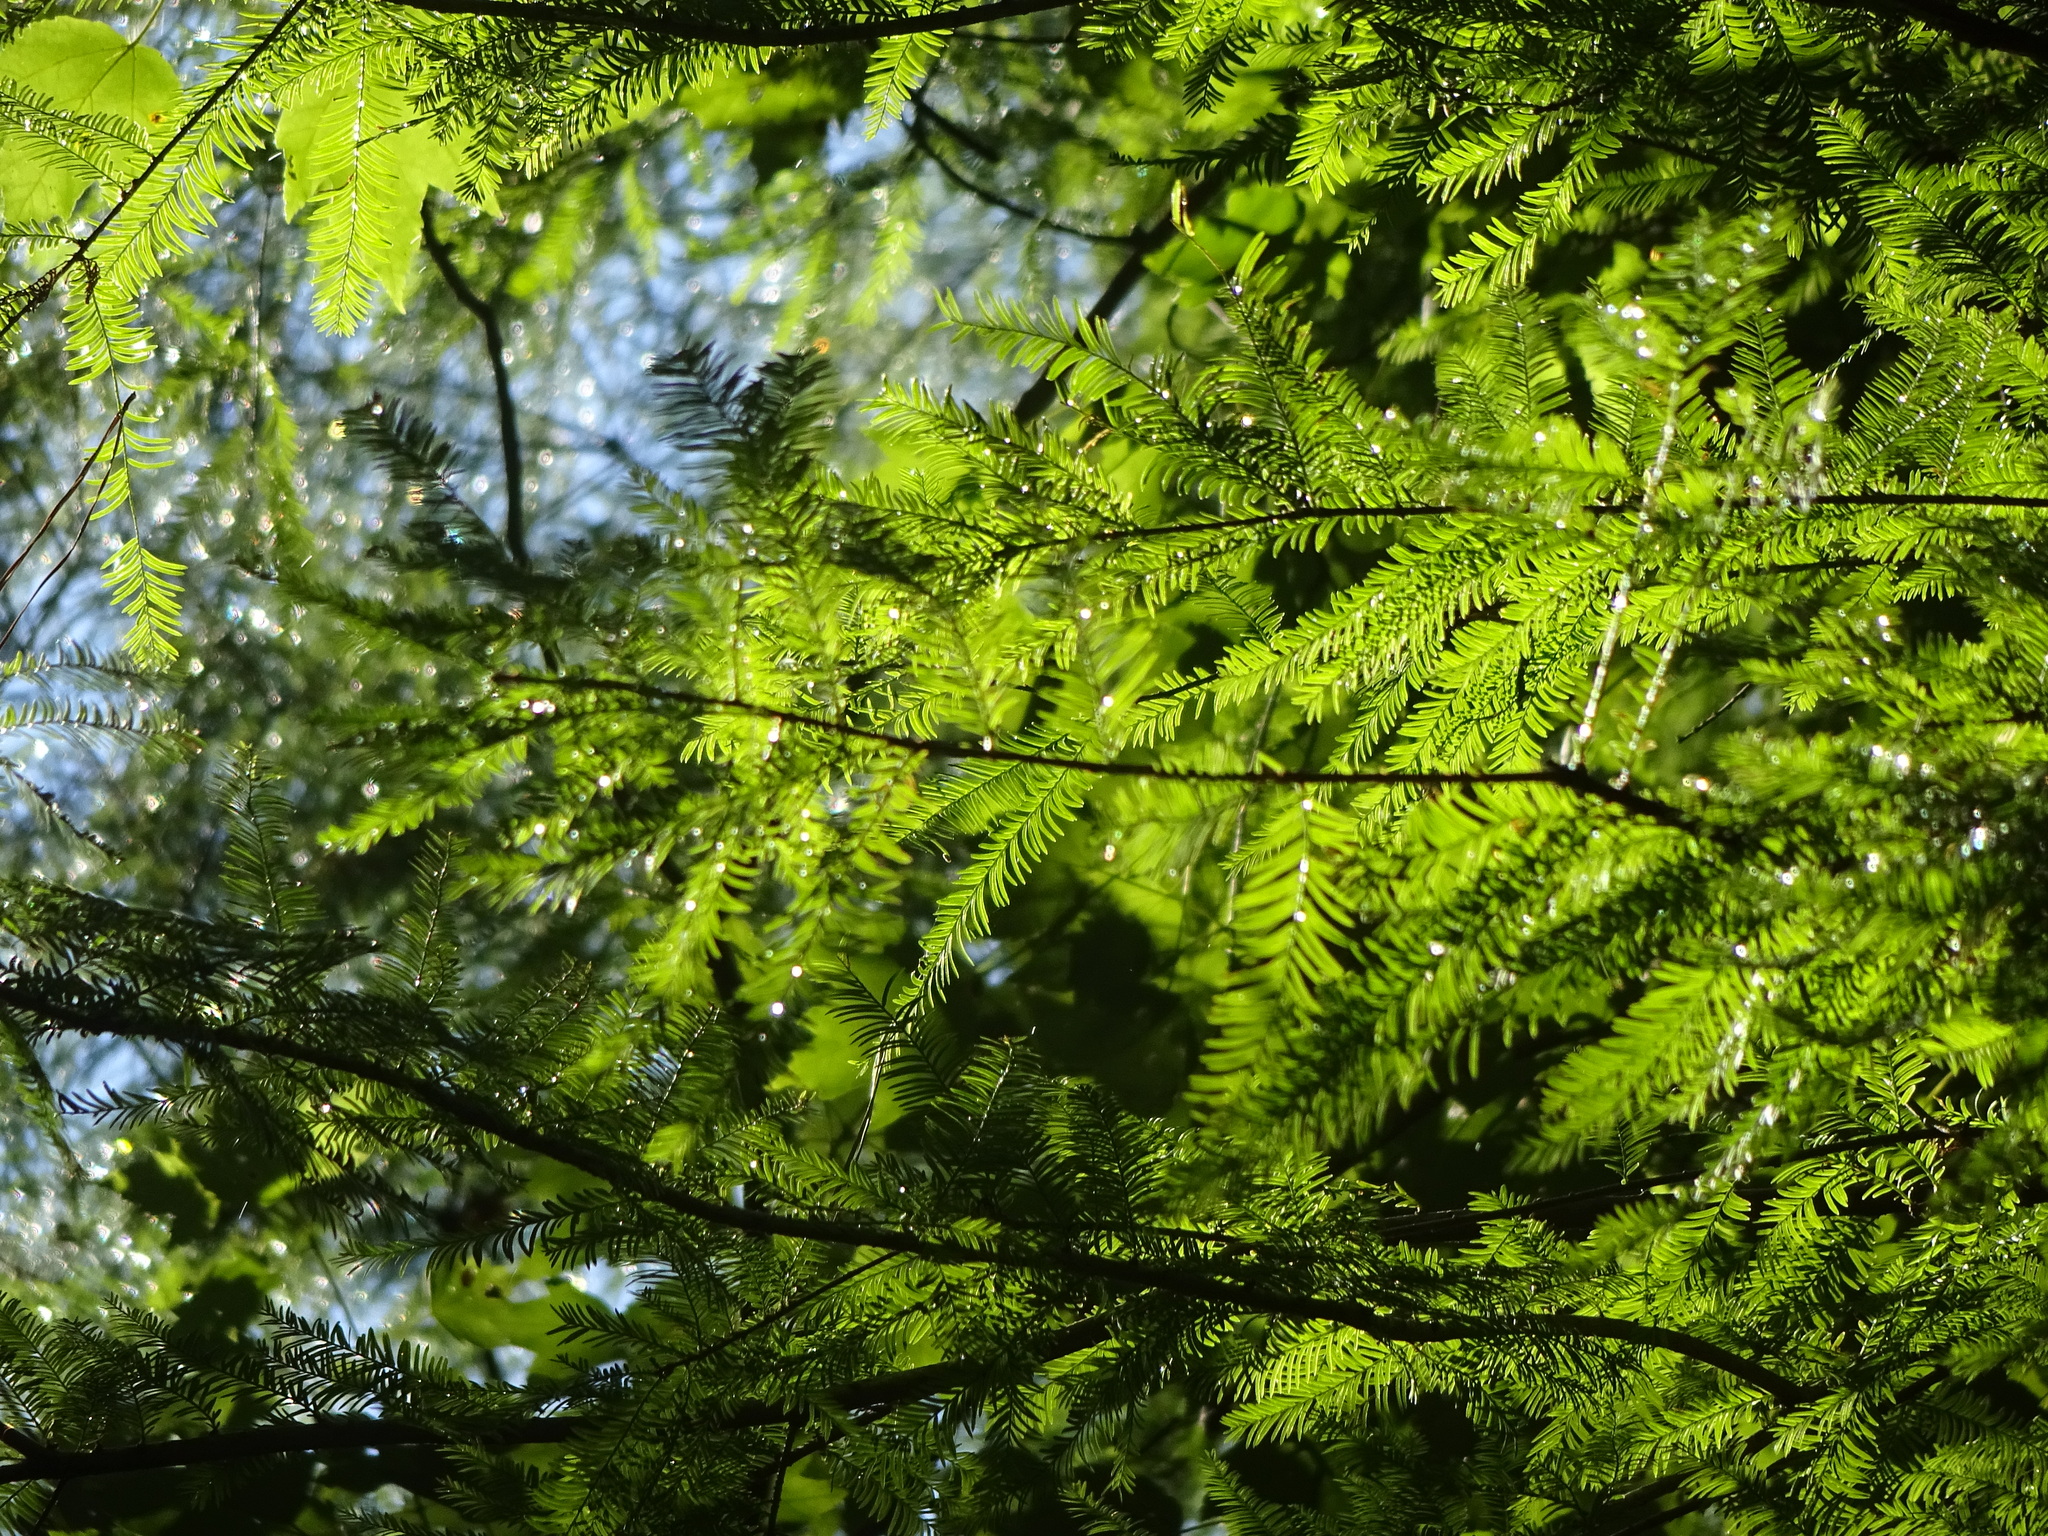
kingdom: Plantae
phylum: Tracheophyta
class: Pinopsida
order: Pinales
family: Cupressaceae
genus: Taxodium
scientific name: Taxodium distichum
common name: Bald cypress
